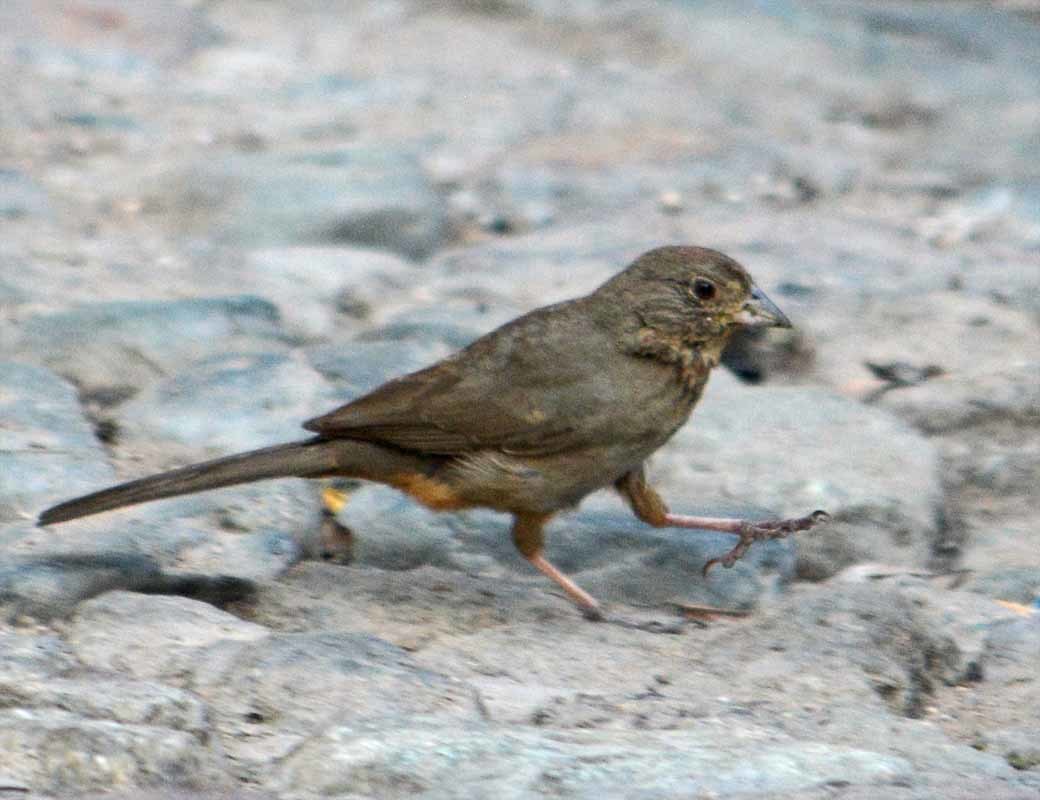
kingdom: Animalia
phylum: Chordata
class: Aves
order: Passeriformes
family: Passerellidae
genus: Melozone
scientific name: Melozone fusca
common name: Canyon towhee
